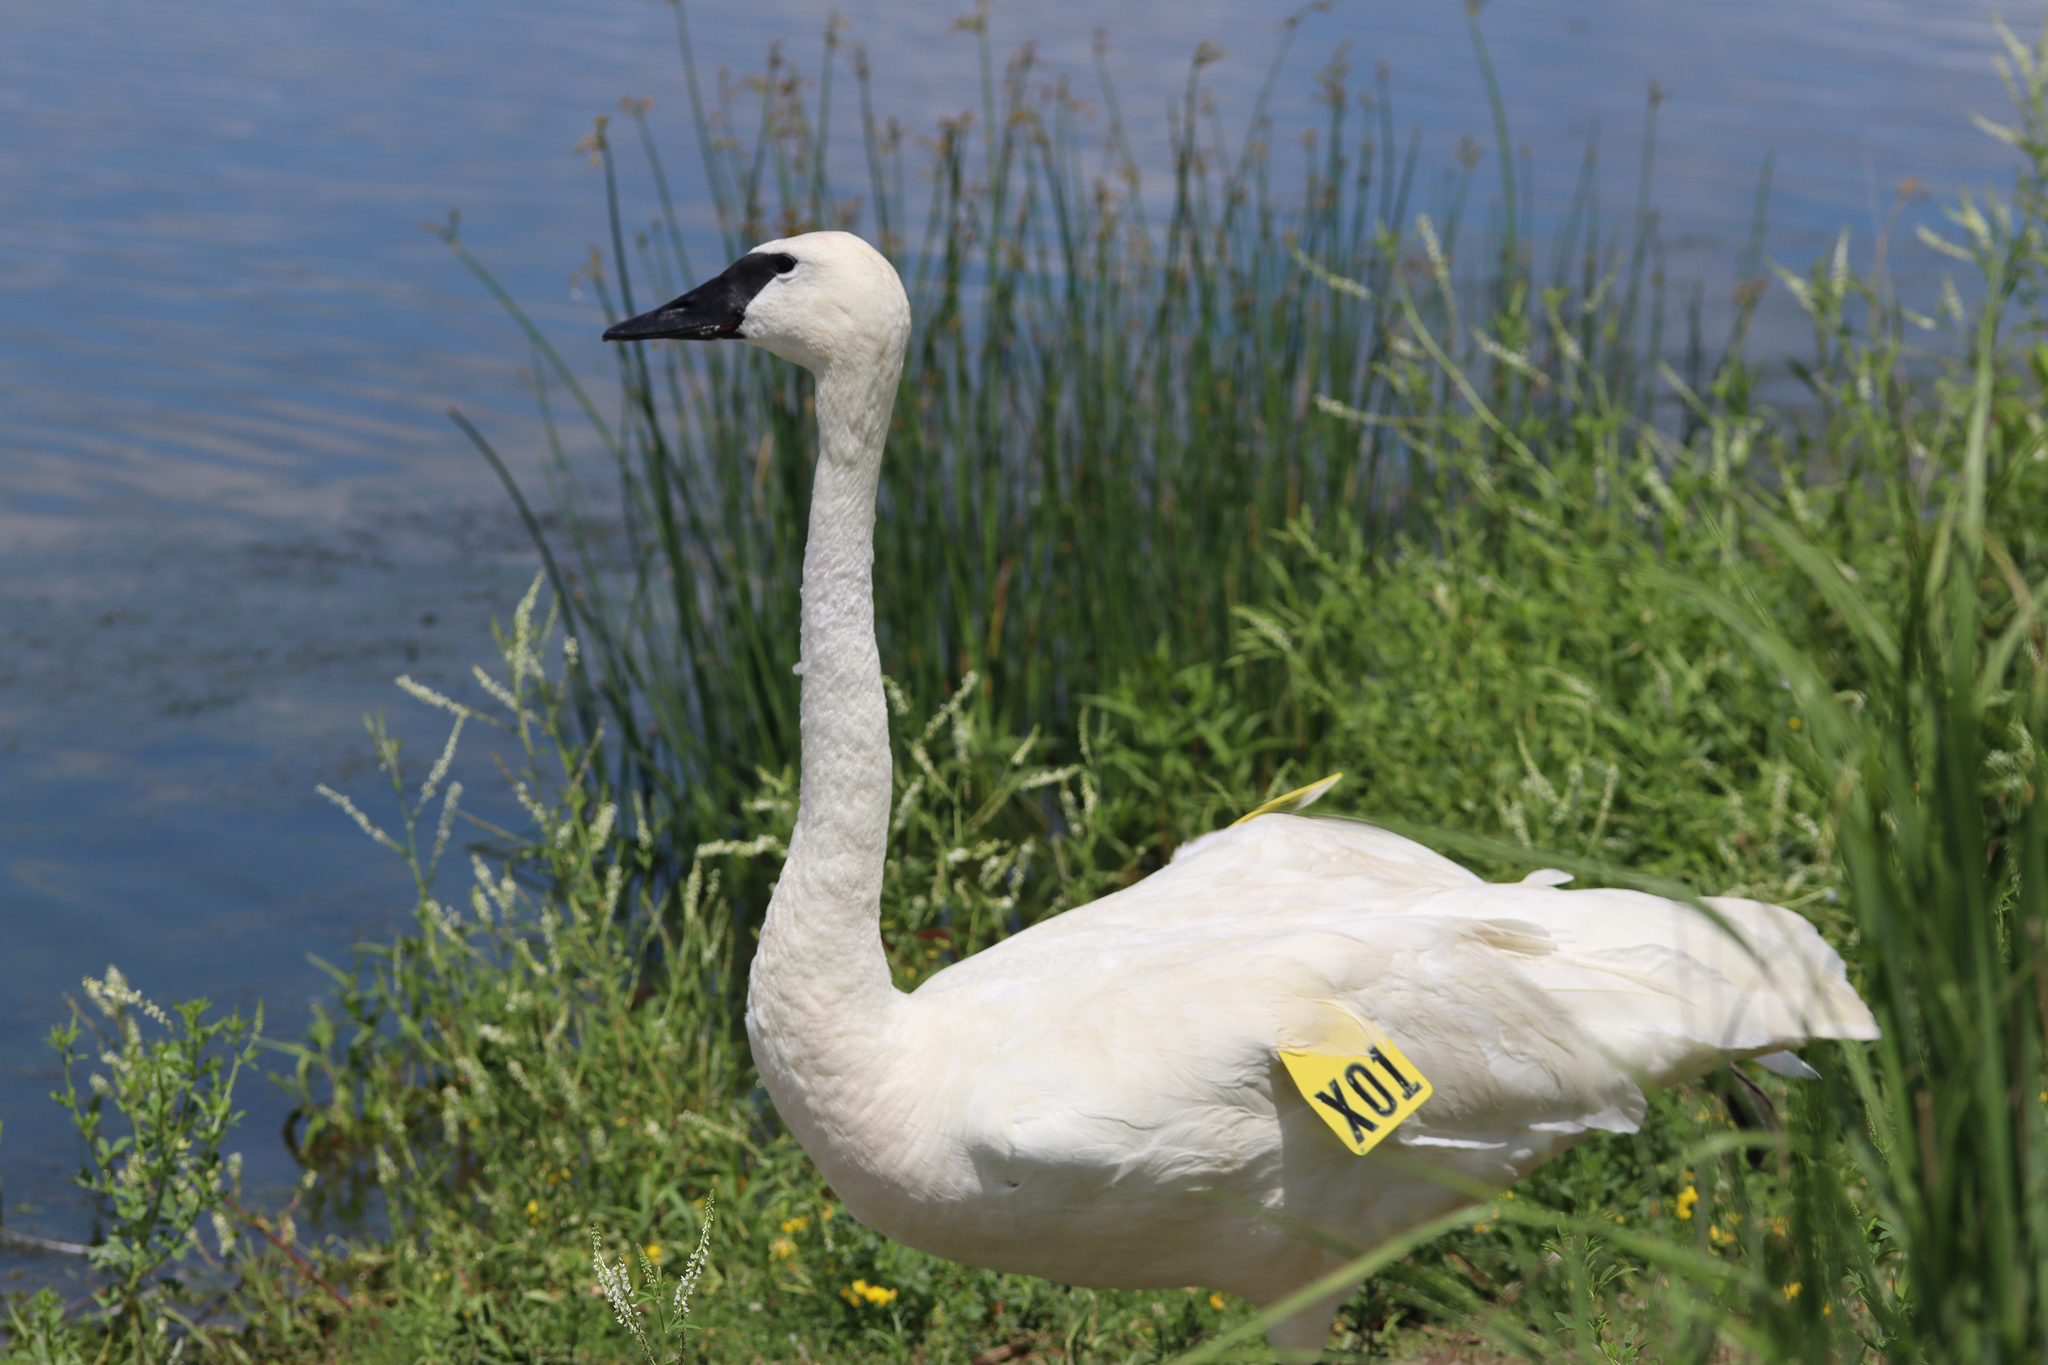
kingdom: Animalia
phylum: Chordata
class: Aves
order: Anseriformes
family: Anatidae
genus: Cygnus
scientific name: Cygnus buccinator
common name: Trumpeter swan
